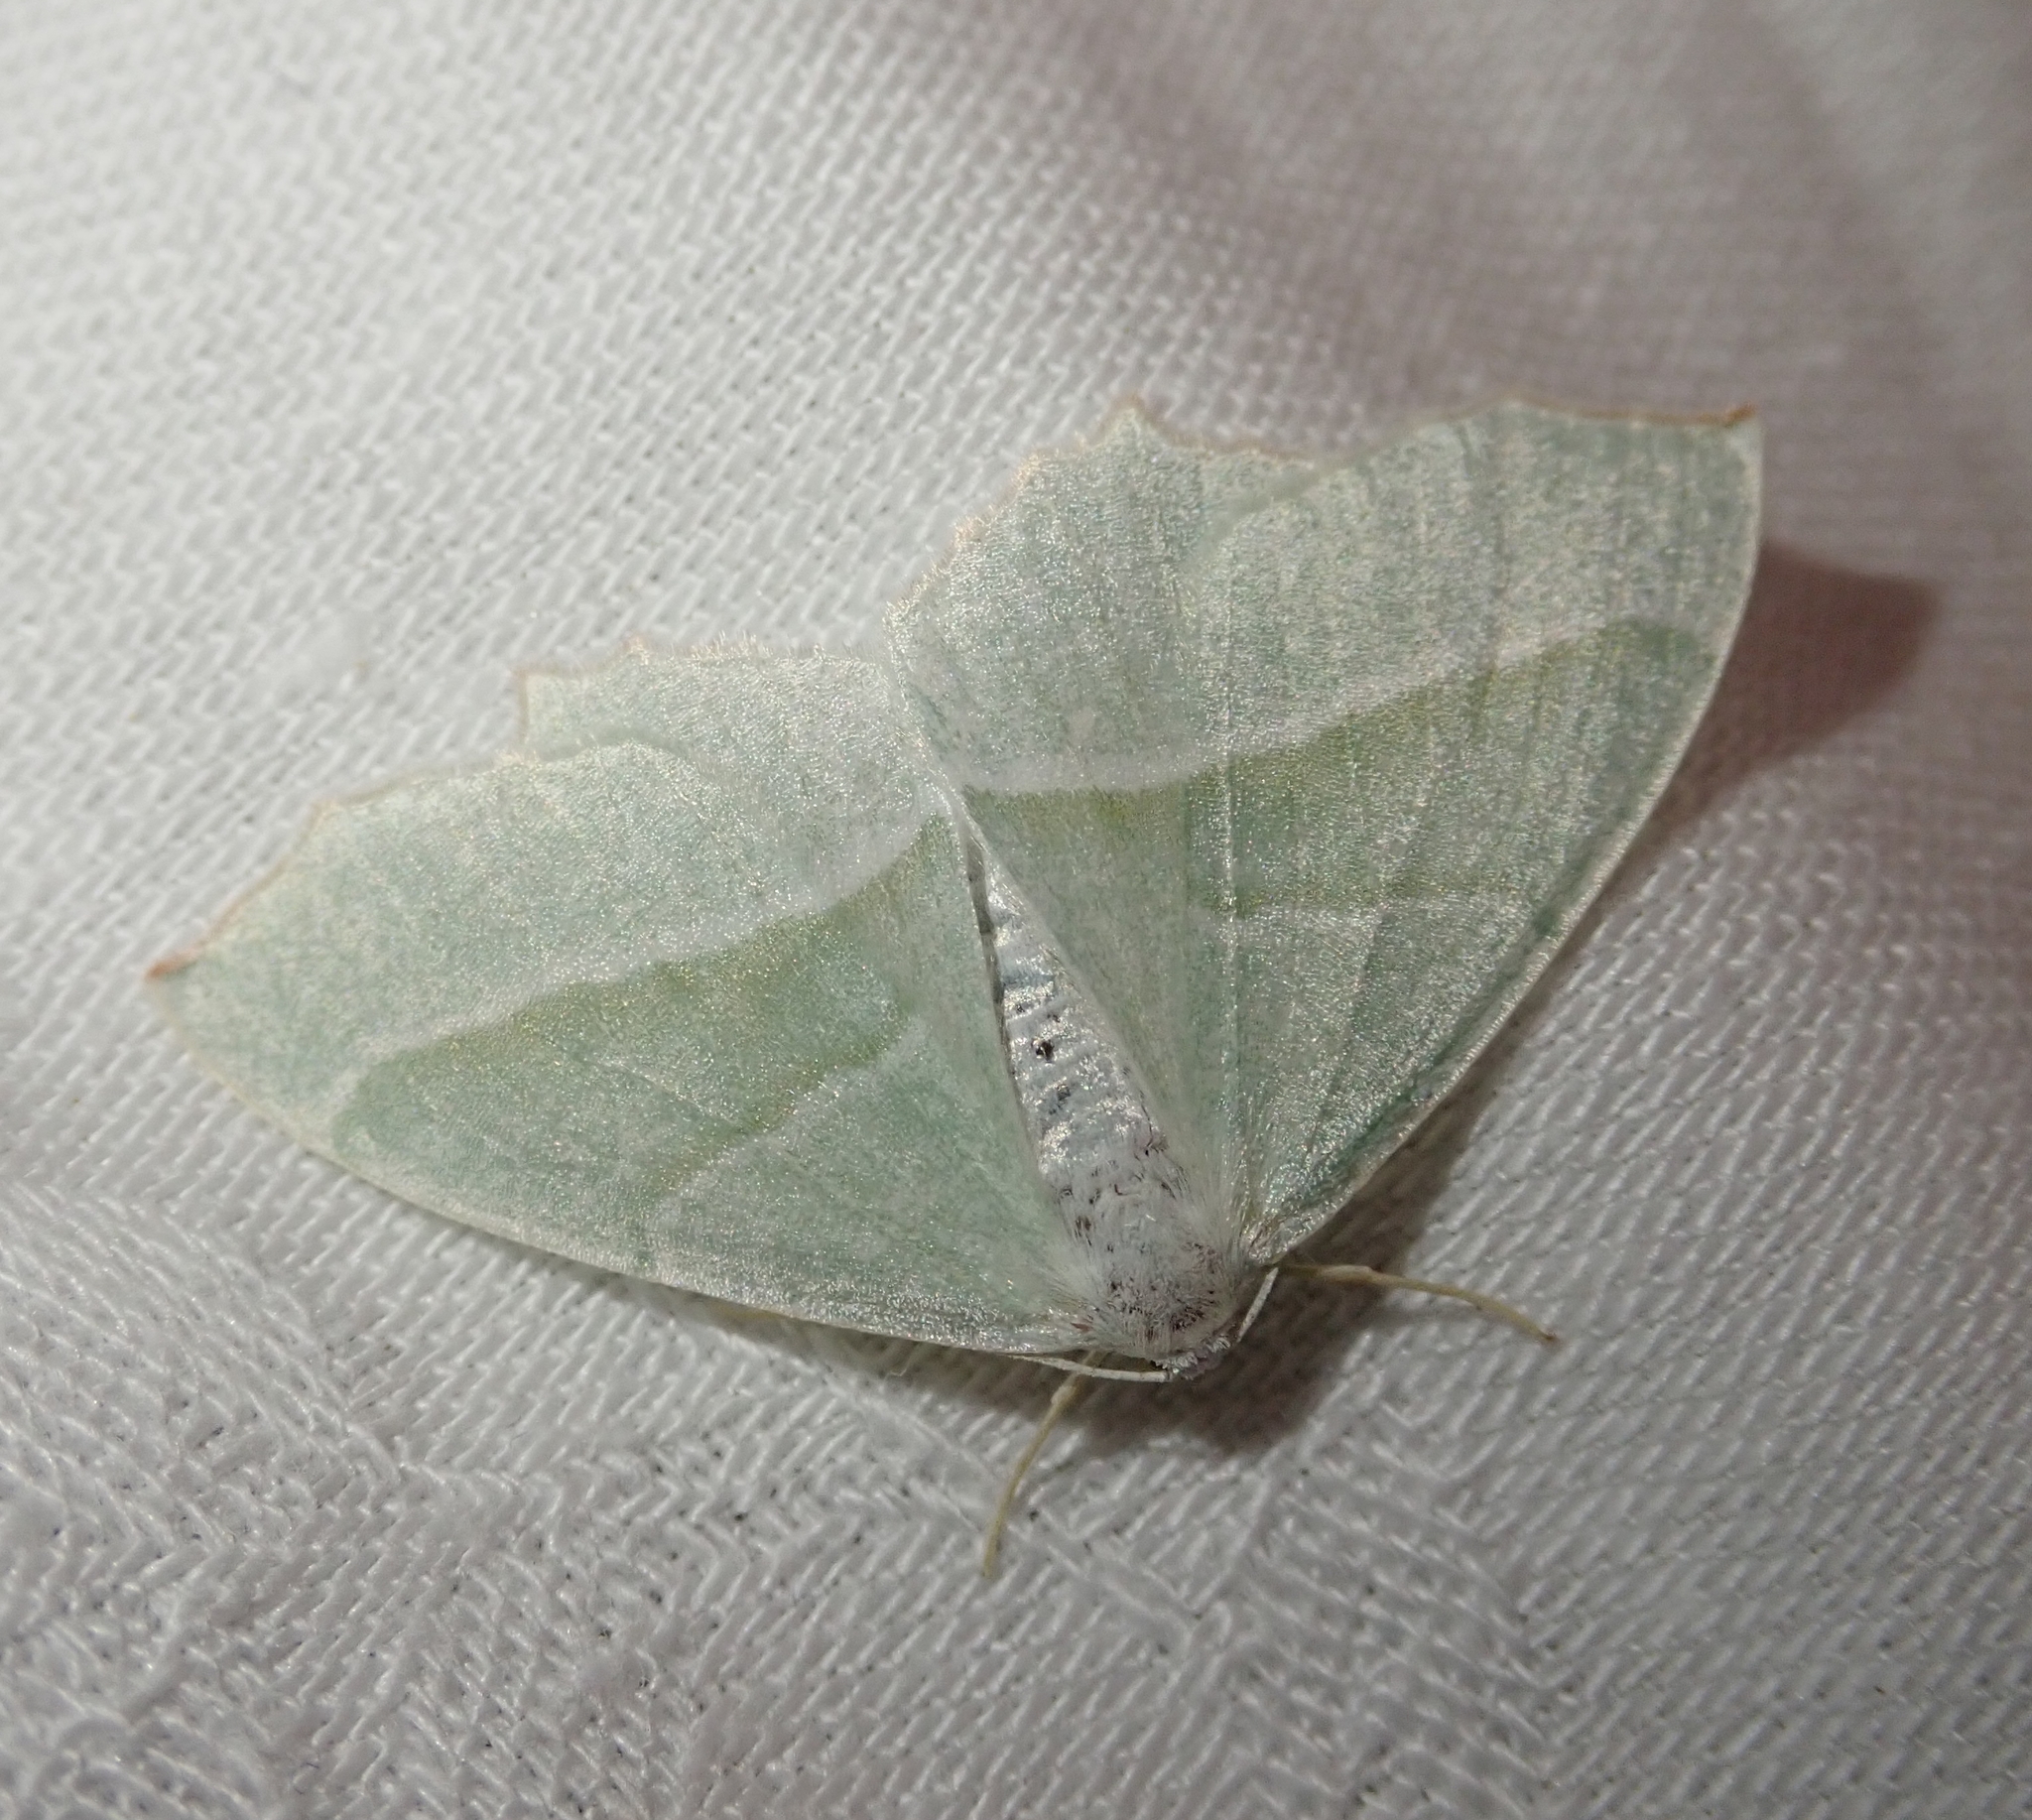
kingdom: Animalia
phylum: Arthropoda
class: Insecta
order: Lepidoptera
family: Geometridae
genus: Campaea
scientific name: Campaea margaritaria
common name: Light emerald
